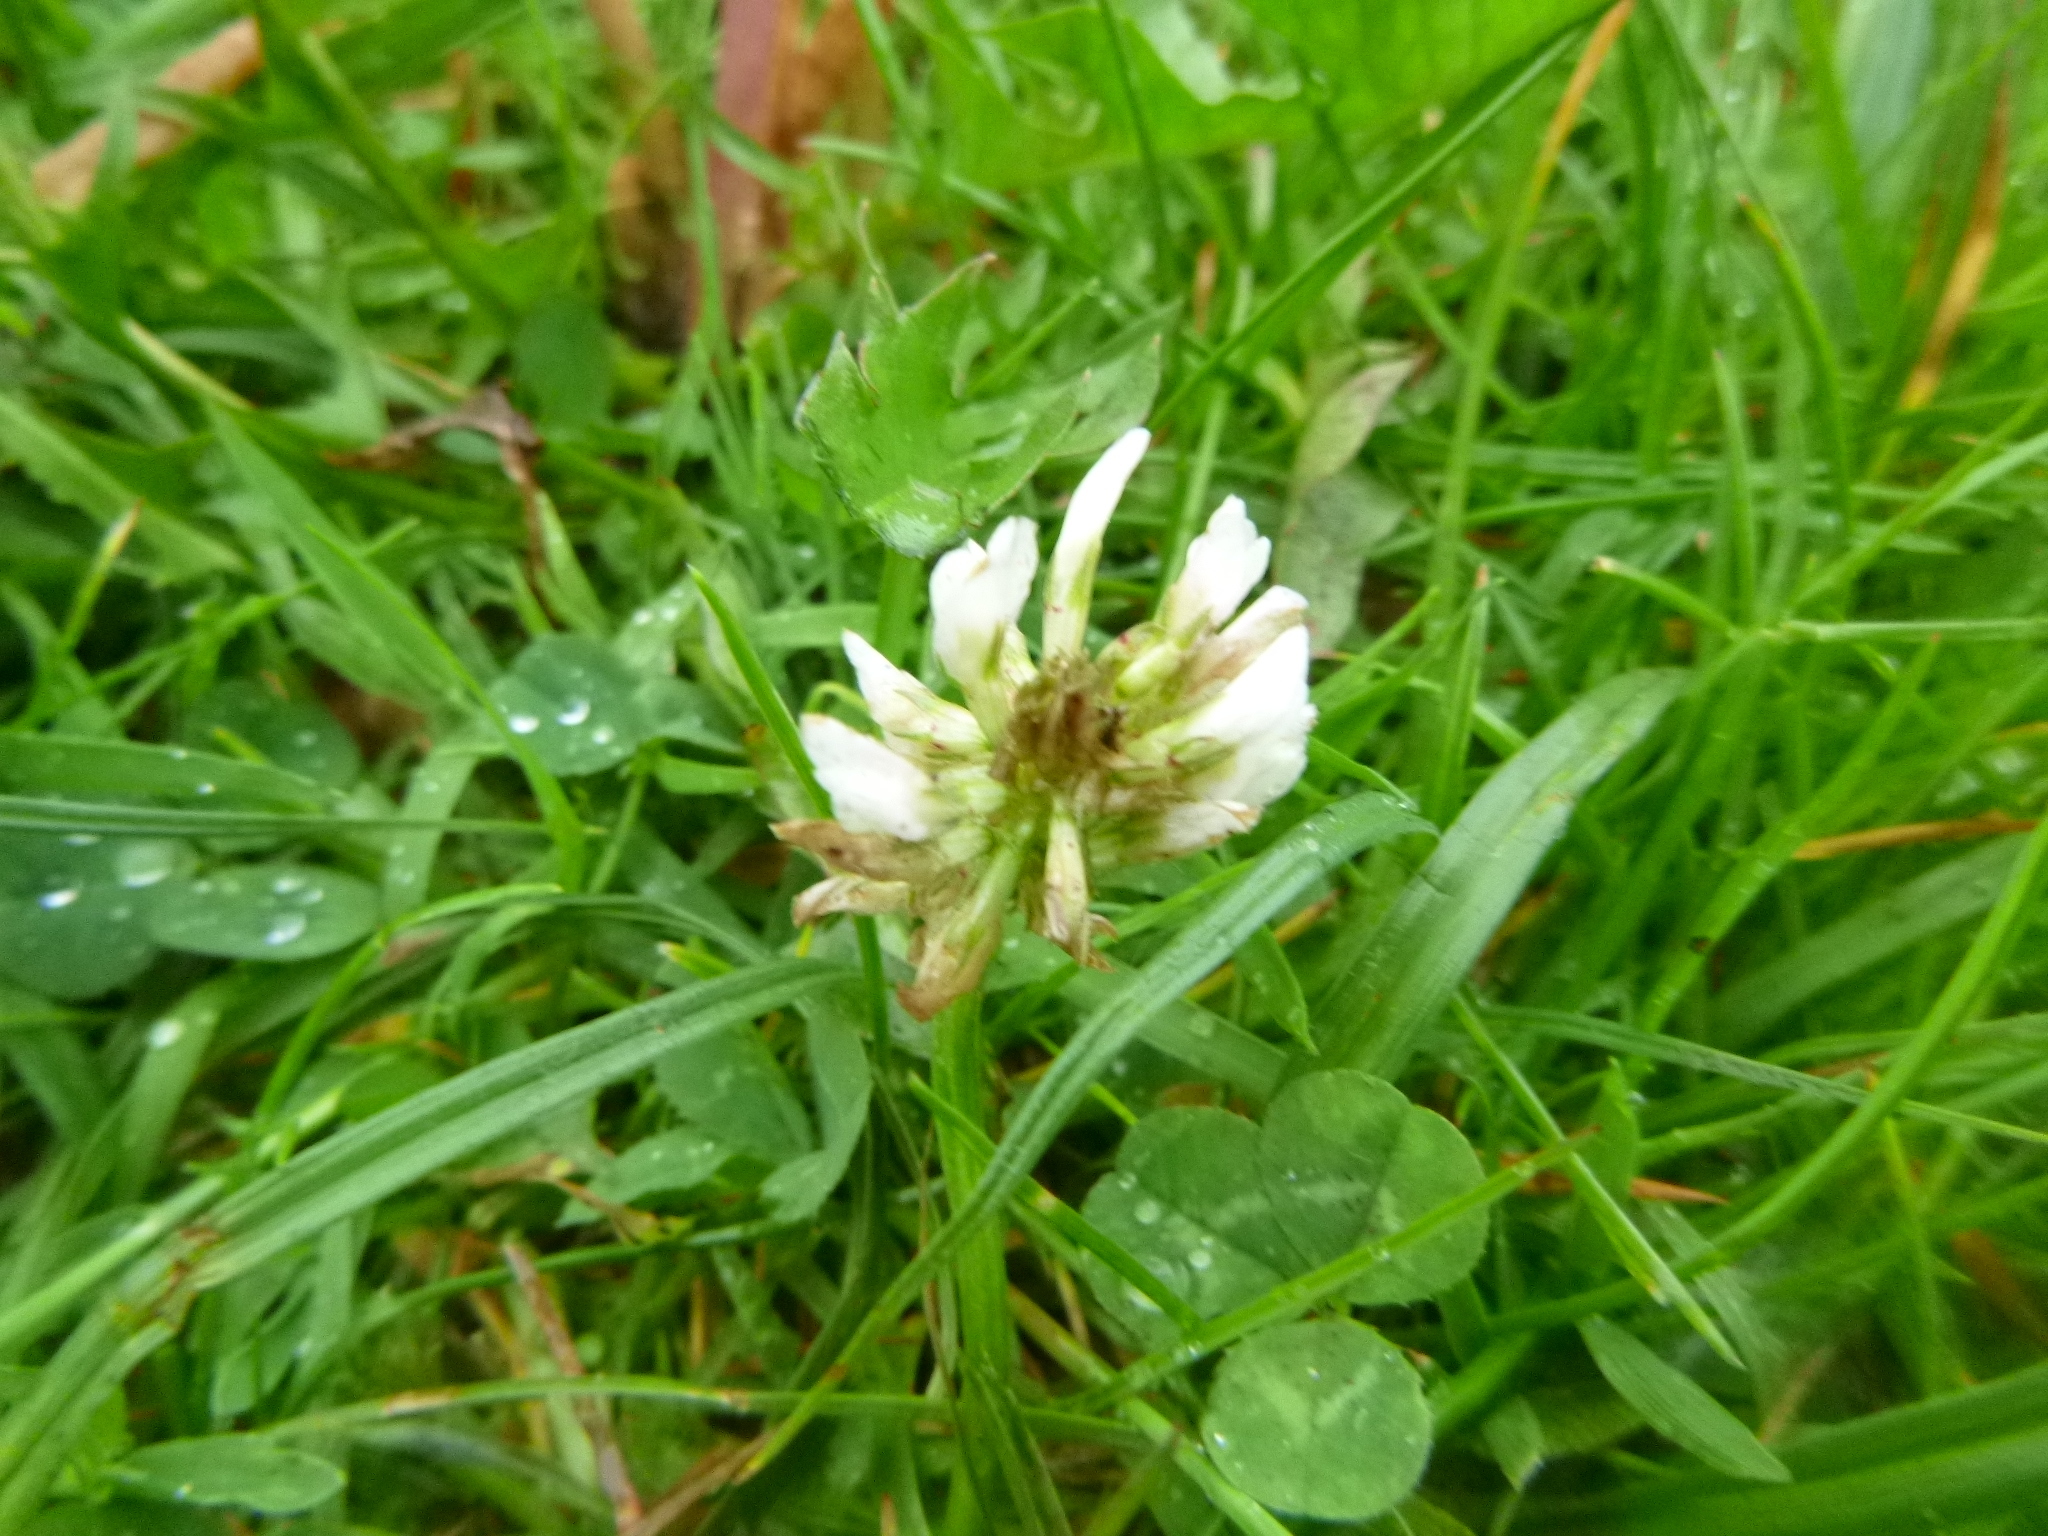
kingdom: Plantae
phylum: Tracheophyta
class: Magnoliopsida
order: Fabales
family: Fabaceae
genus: Trifolium
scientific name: Trifolium repens
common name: White clover
